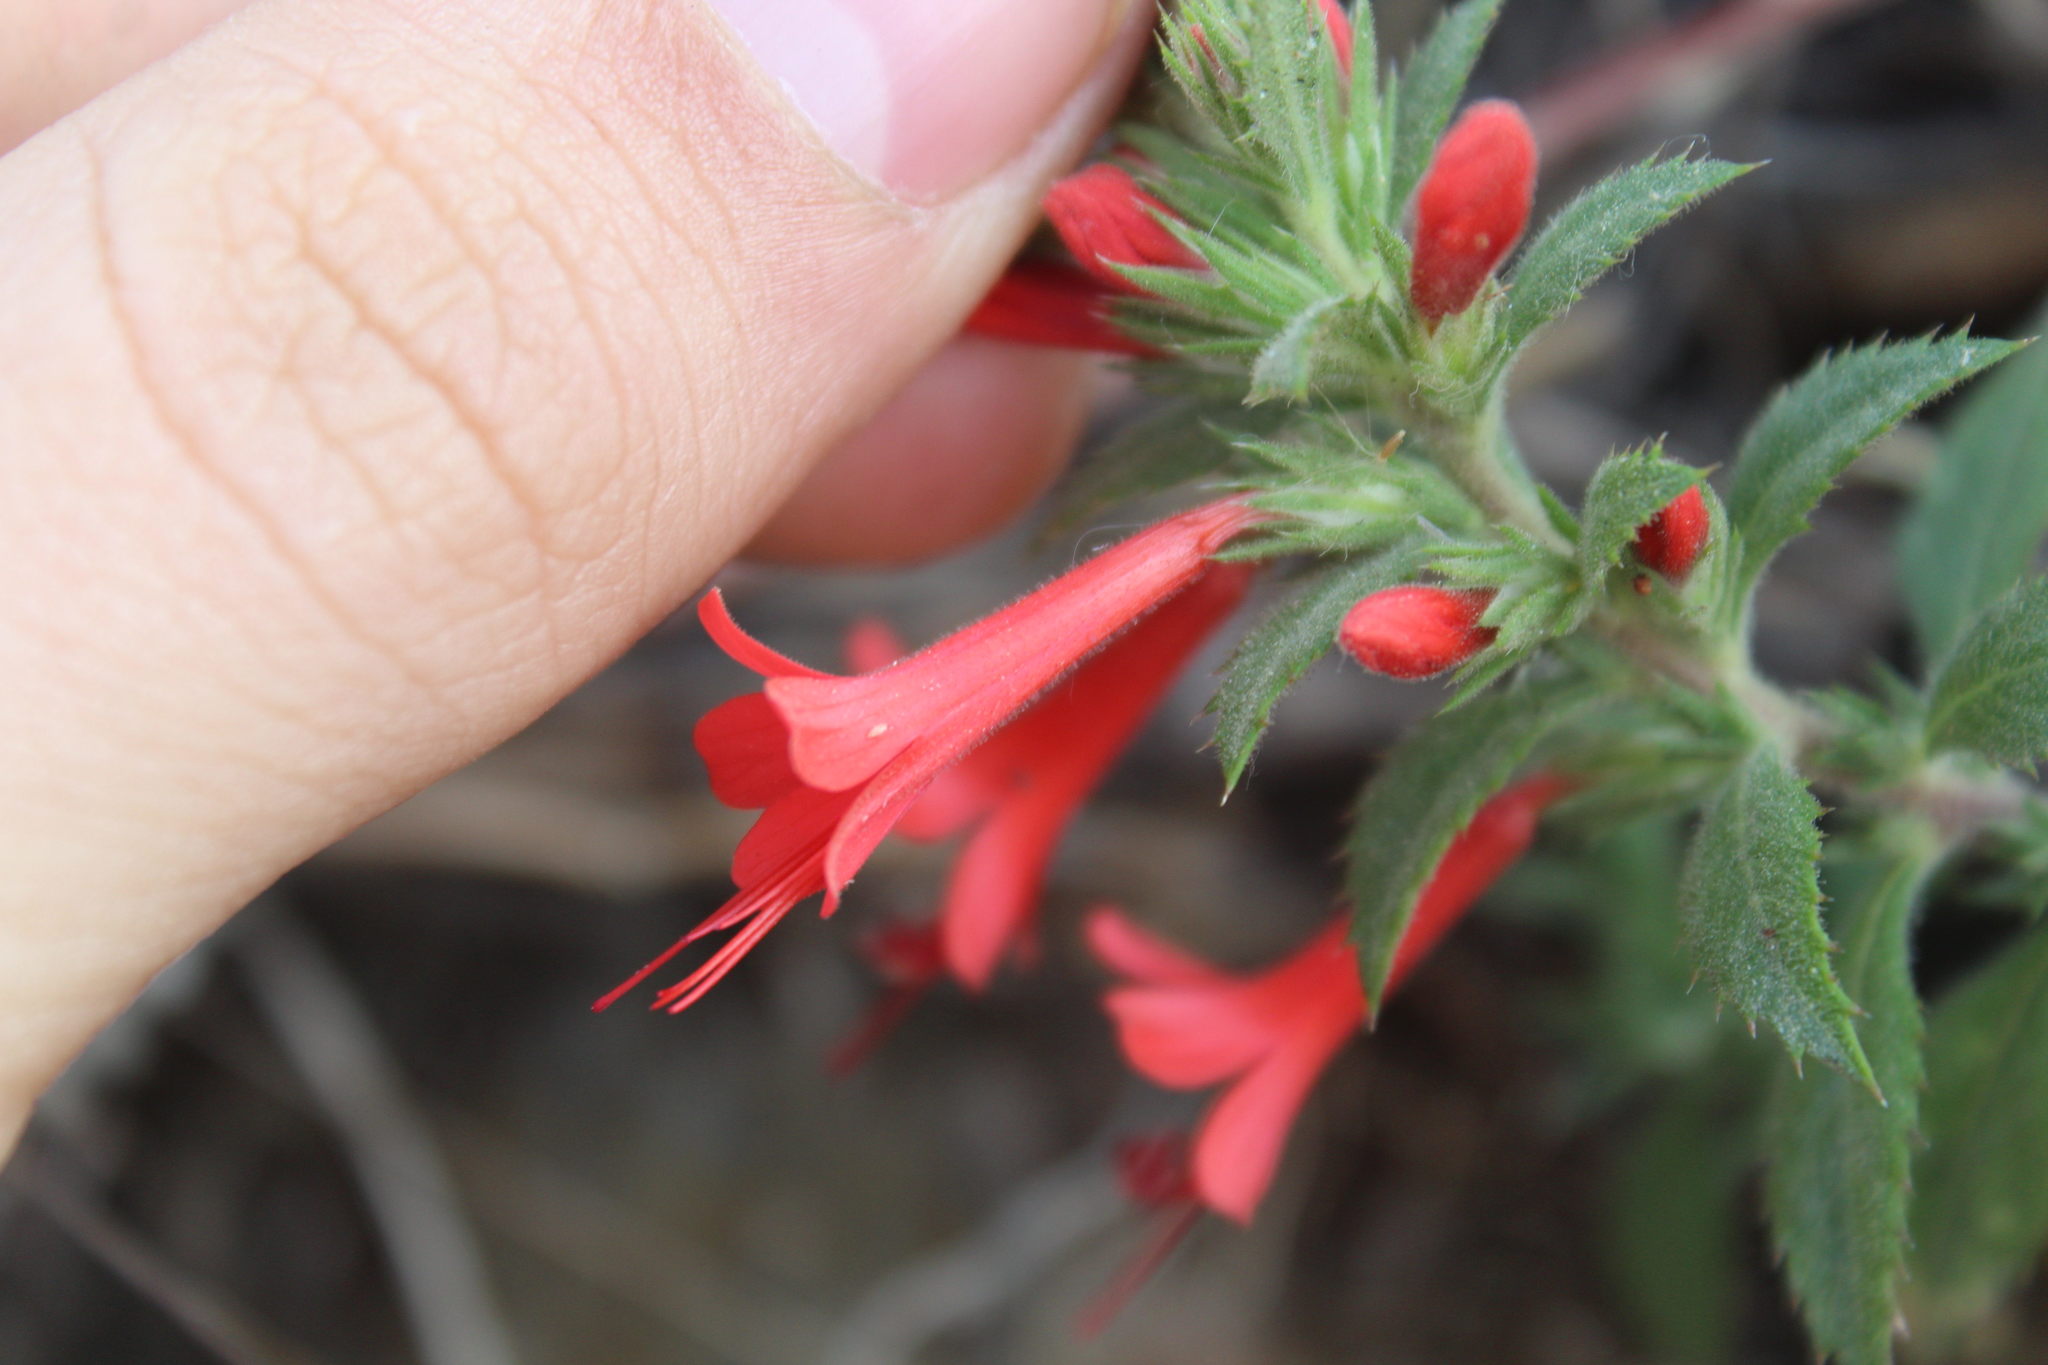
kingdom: Plantae
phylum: Tracheophyta
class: Magnoliopsida
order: Ericales
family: Polemoniaceae
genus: Loeselia
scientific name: Loeselia mexicana
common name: Mexican false calico
